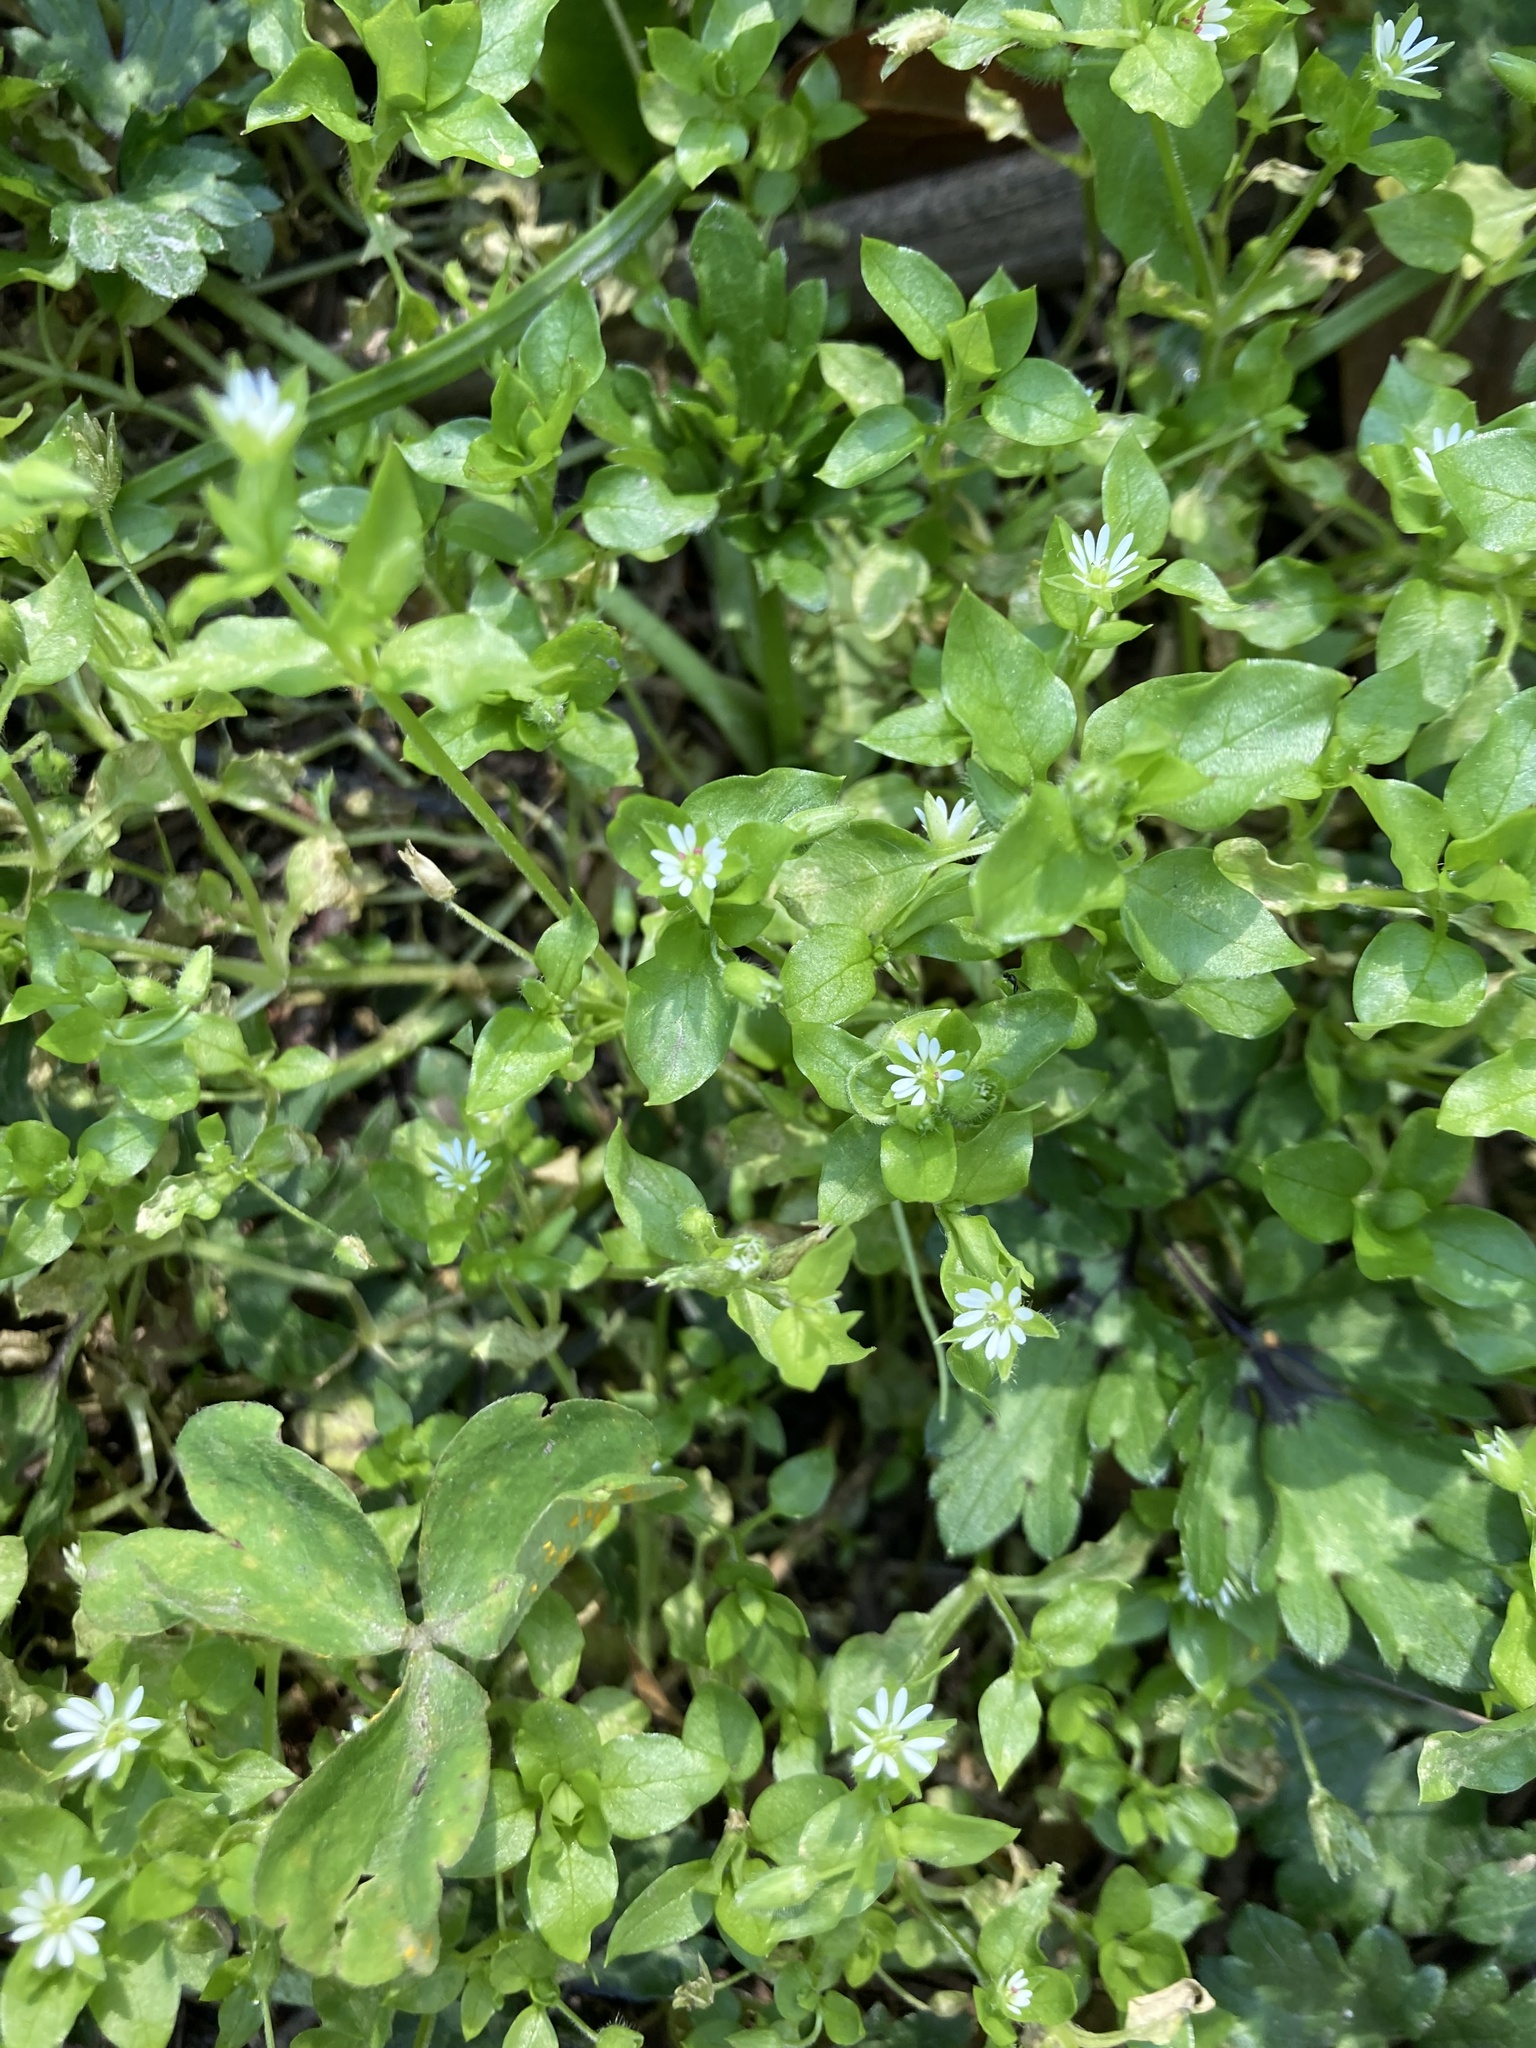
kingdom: Plantae
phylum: Tracheophyta
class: Magnoliopsida
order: Caryophyllales
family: Caryophyllaceae
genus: Stellaria
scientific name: Stellaria media
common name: Common chickweed
